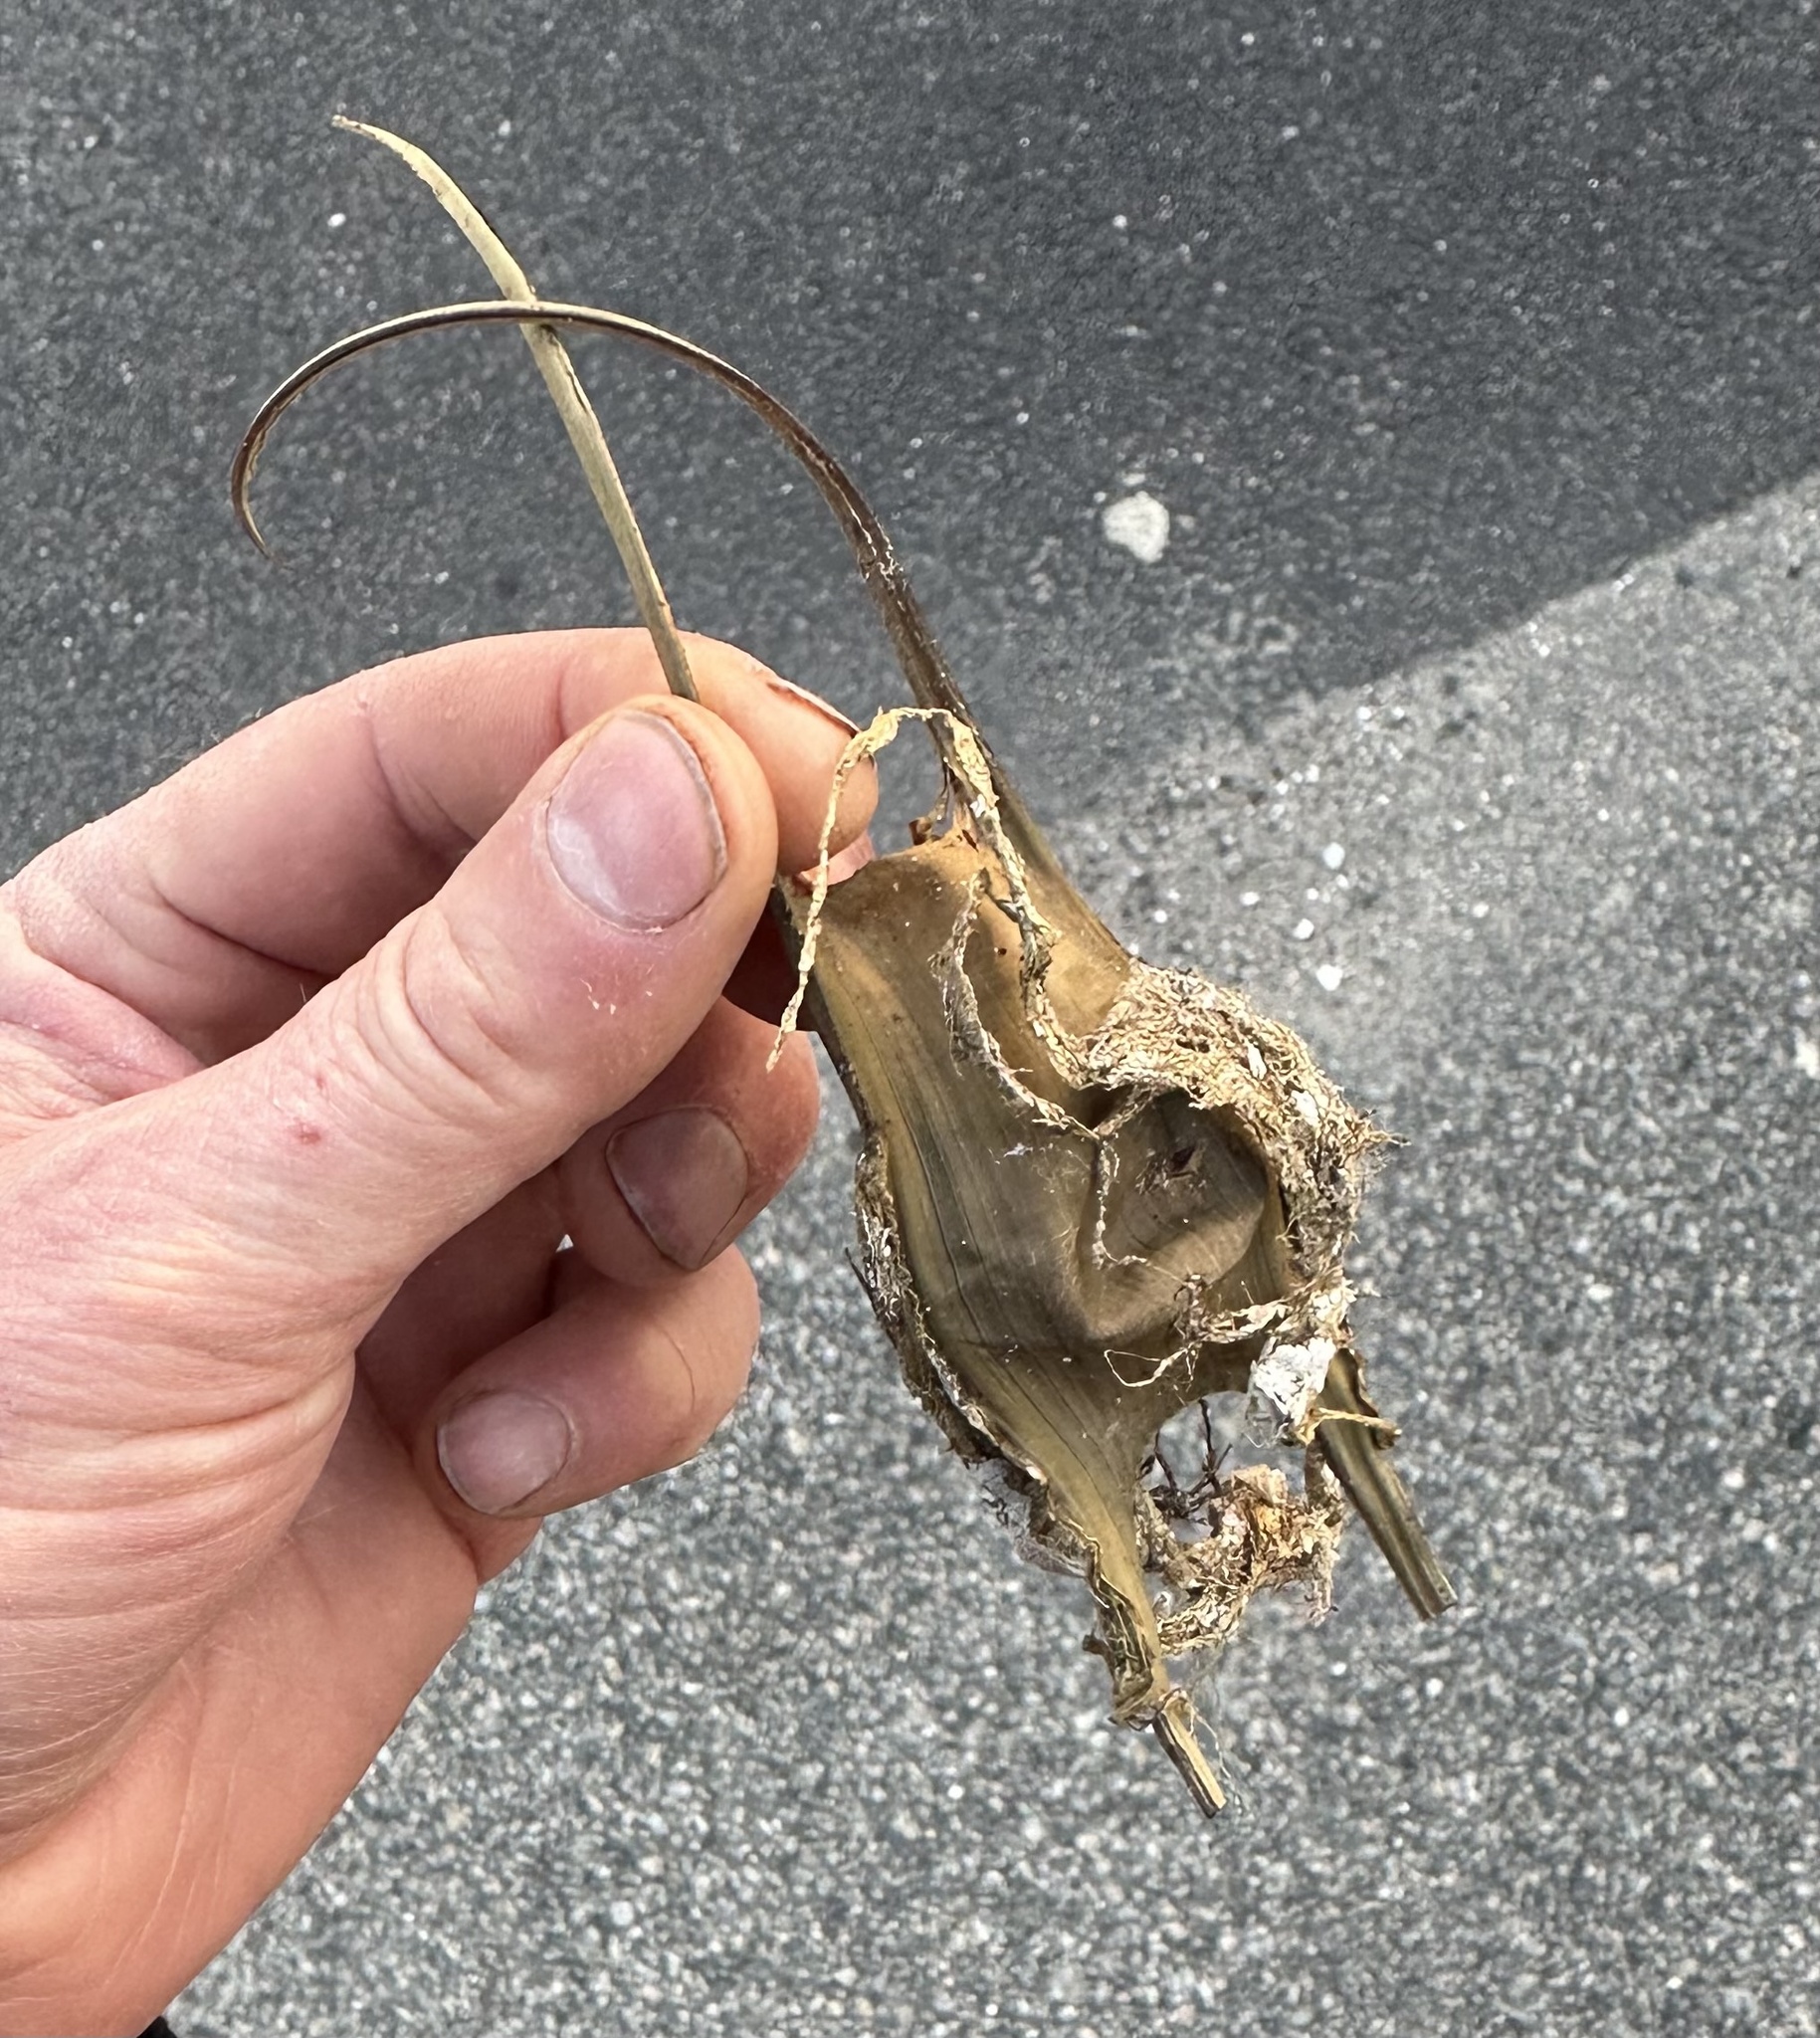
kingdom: Animalia
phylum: Chordata
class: Elasmobranchii
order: Rajiformes
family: Rajidae
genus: Leucoraja
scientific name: Leucoraja ocellata
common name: Winter skate
